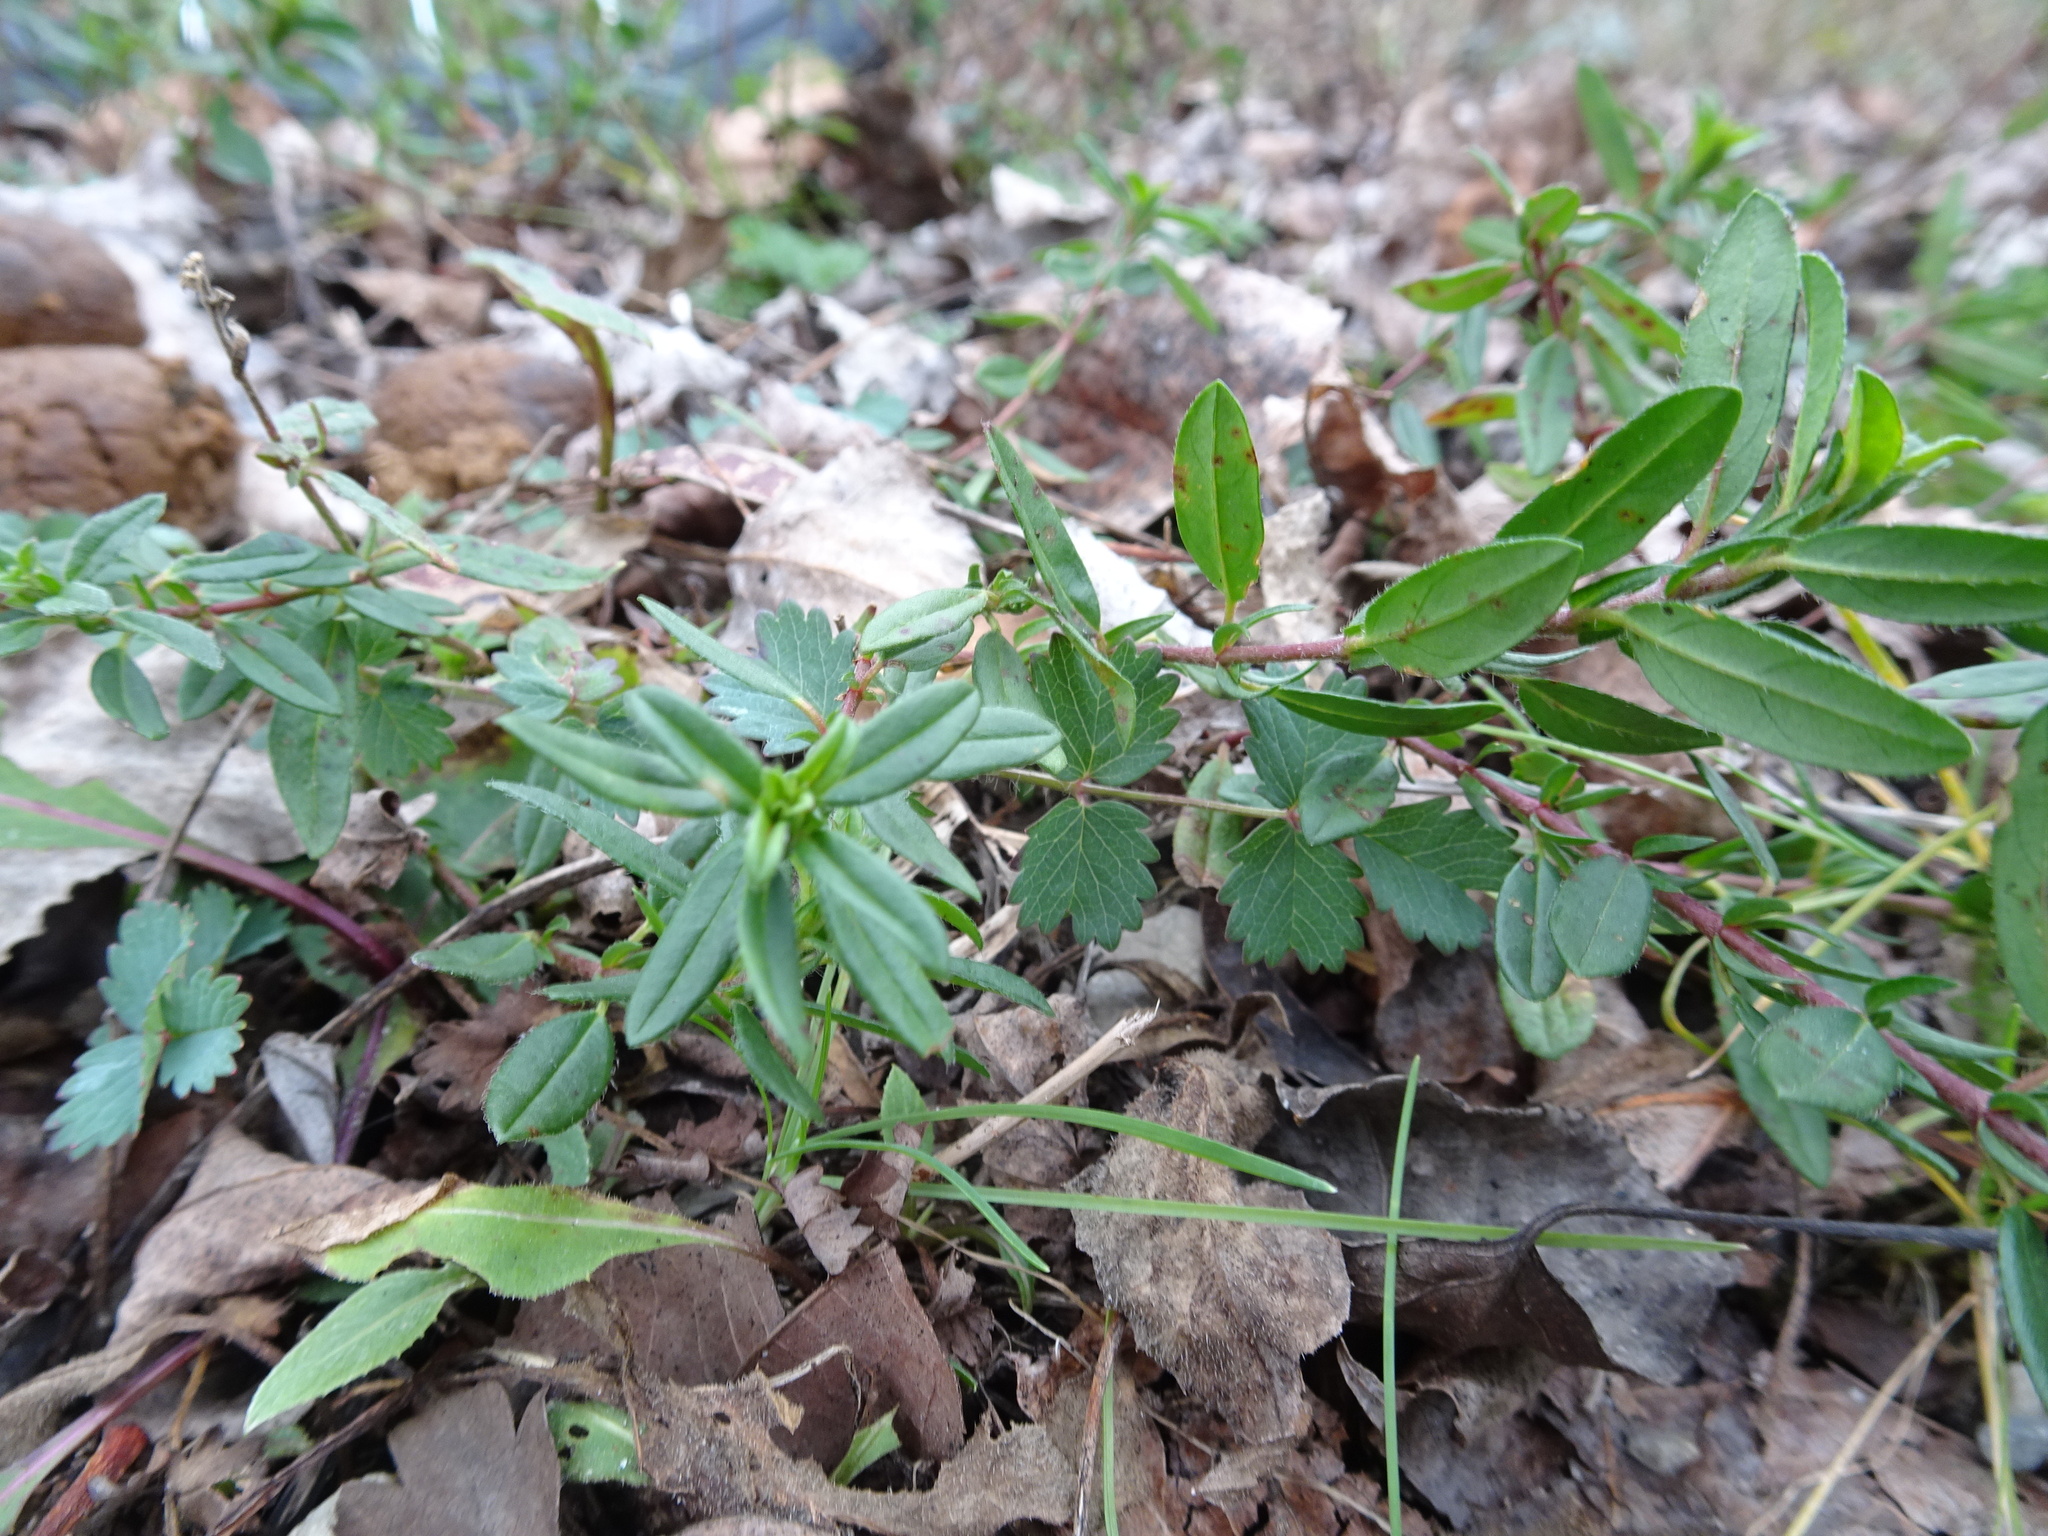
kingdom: Plantae
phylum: Tracheophyta
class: Magnoliopsida
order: Malvales
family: Cistaceae
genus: Helianthemum
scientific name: Helianthemum nummularium
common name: Common rock-rose
